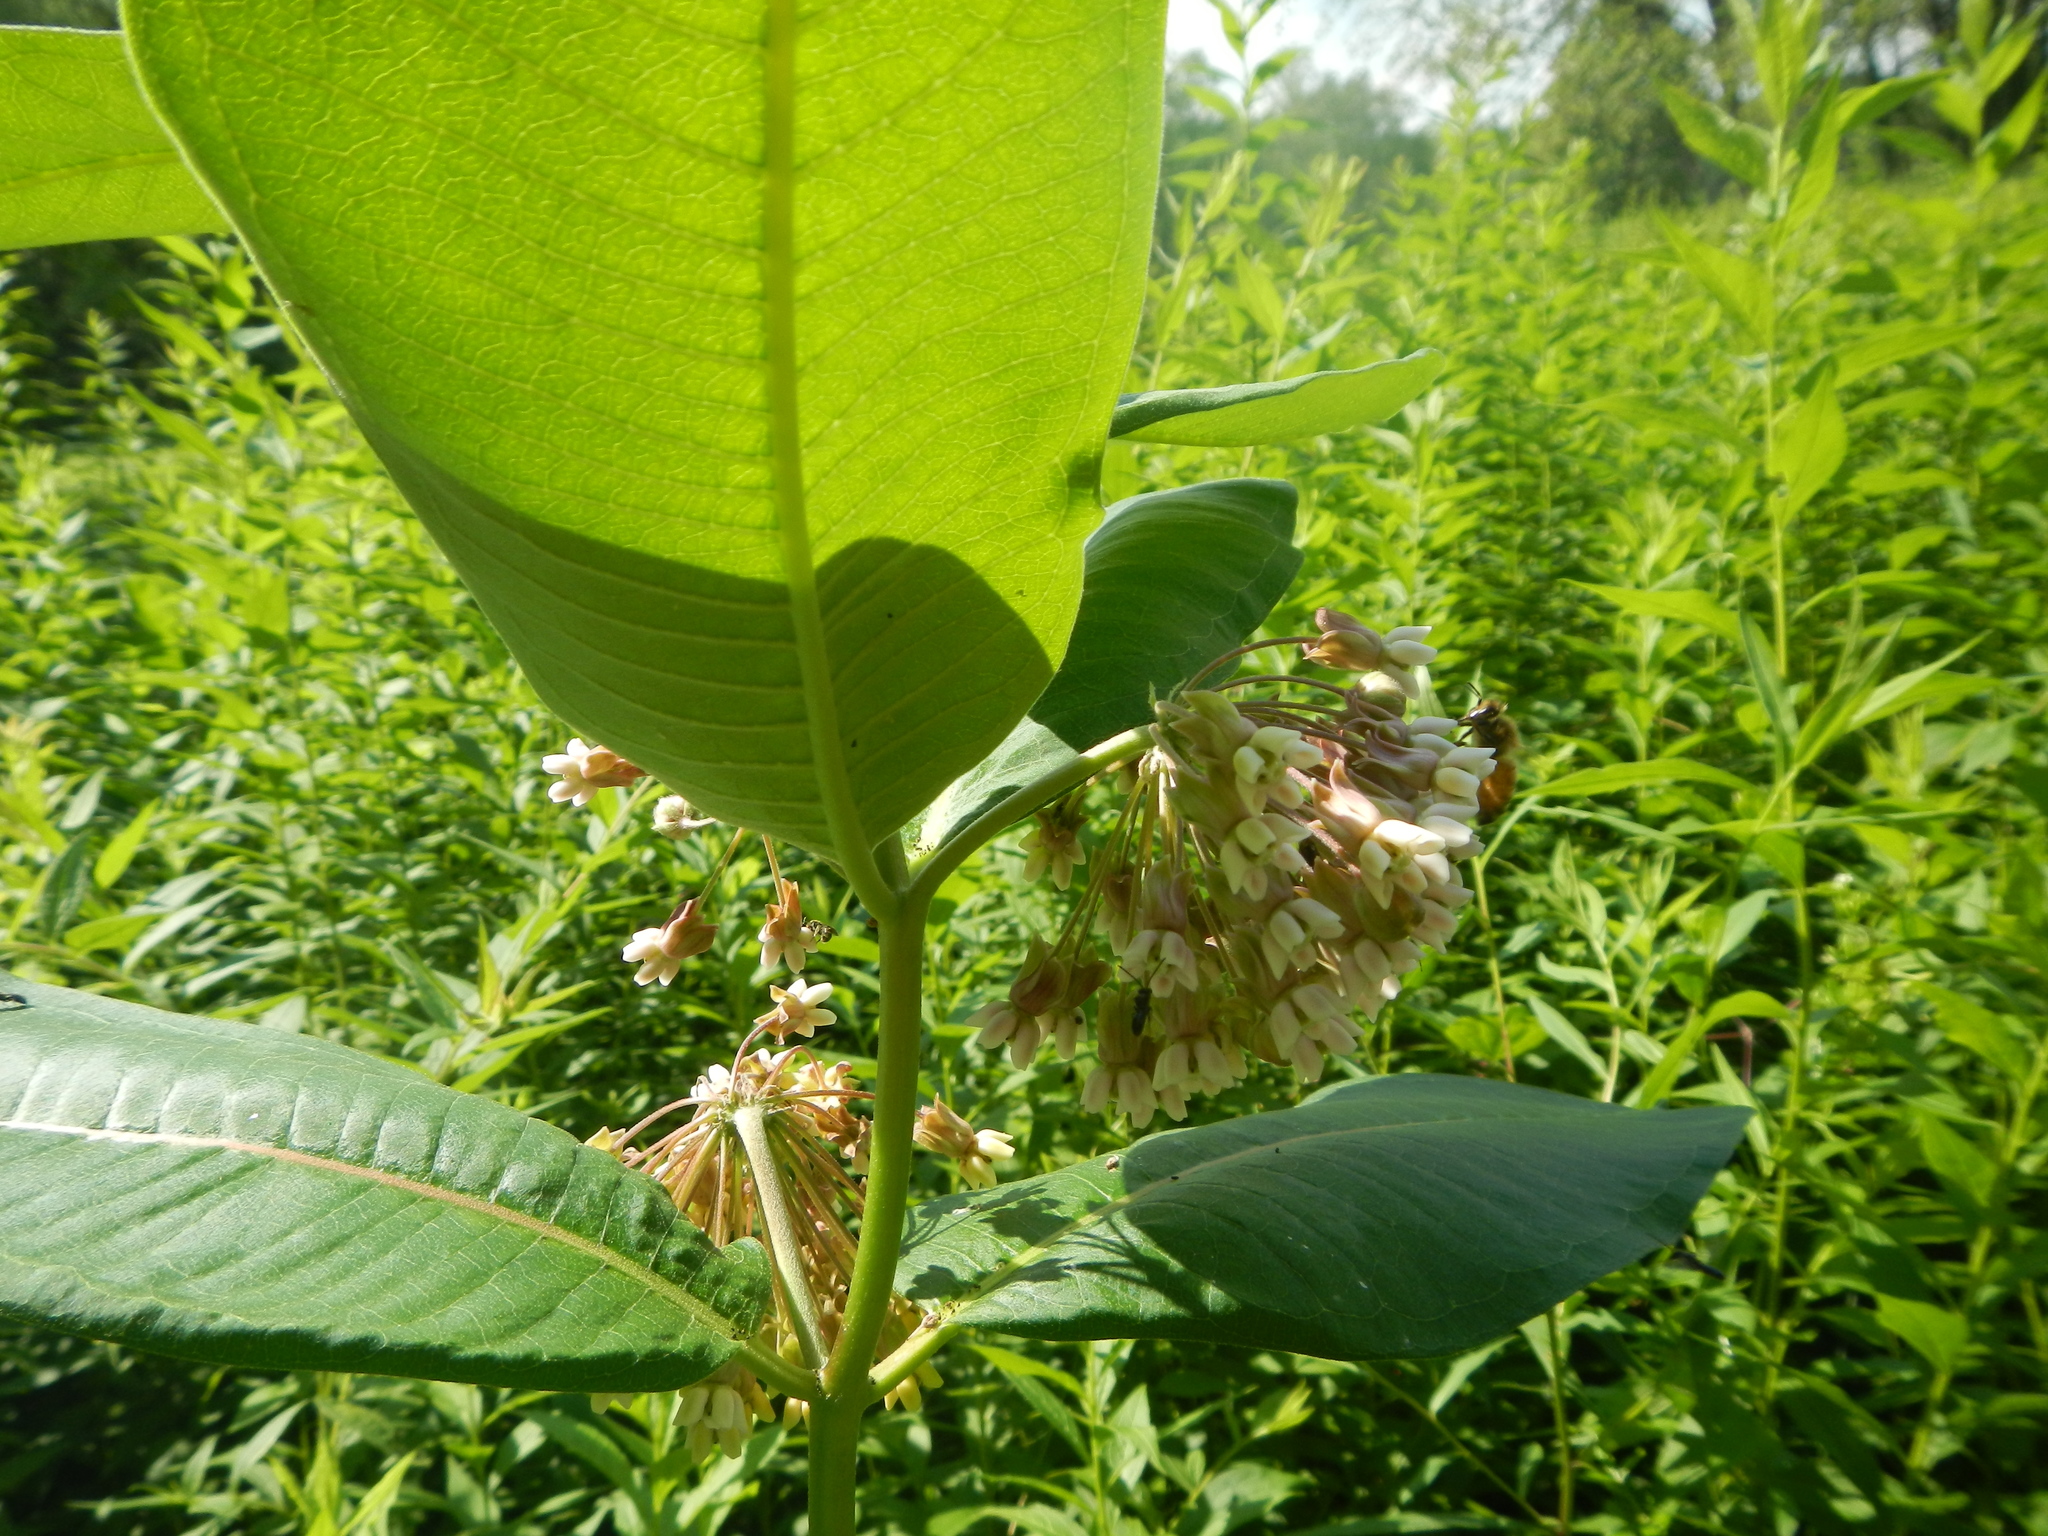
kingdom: Plantae
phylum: Tracheophyta
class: Magnoliopsida
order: Gentianales
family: Apocynaceae
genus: Asclepias
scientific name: Asclepias syriaca
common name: Common milkweed
